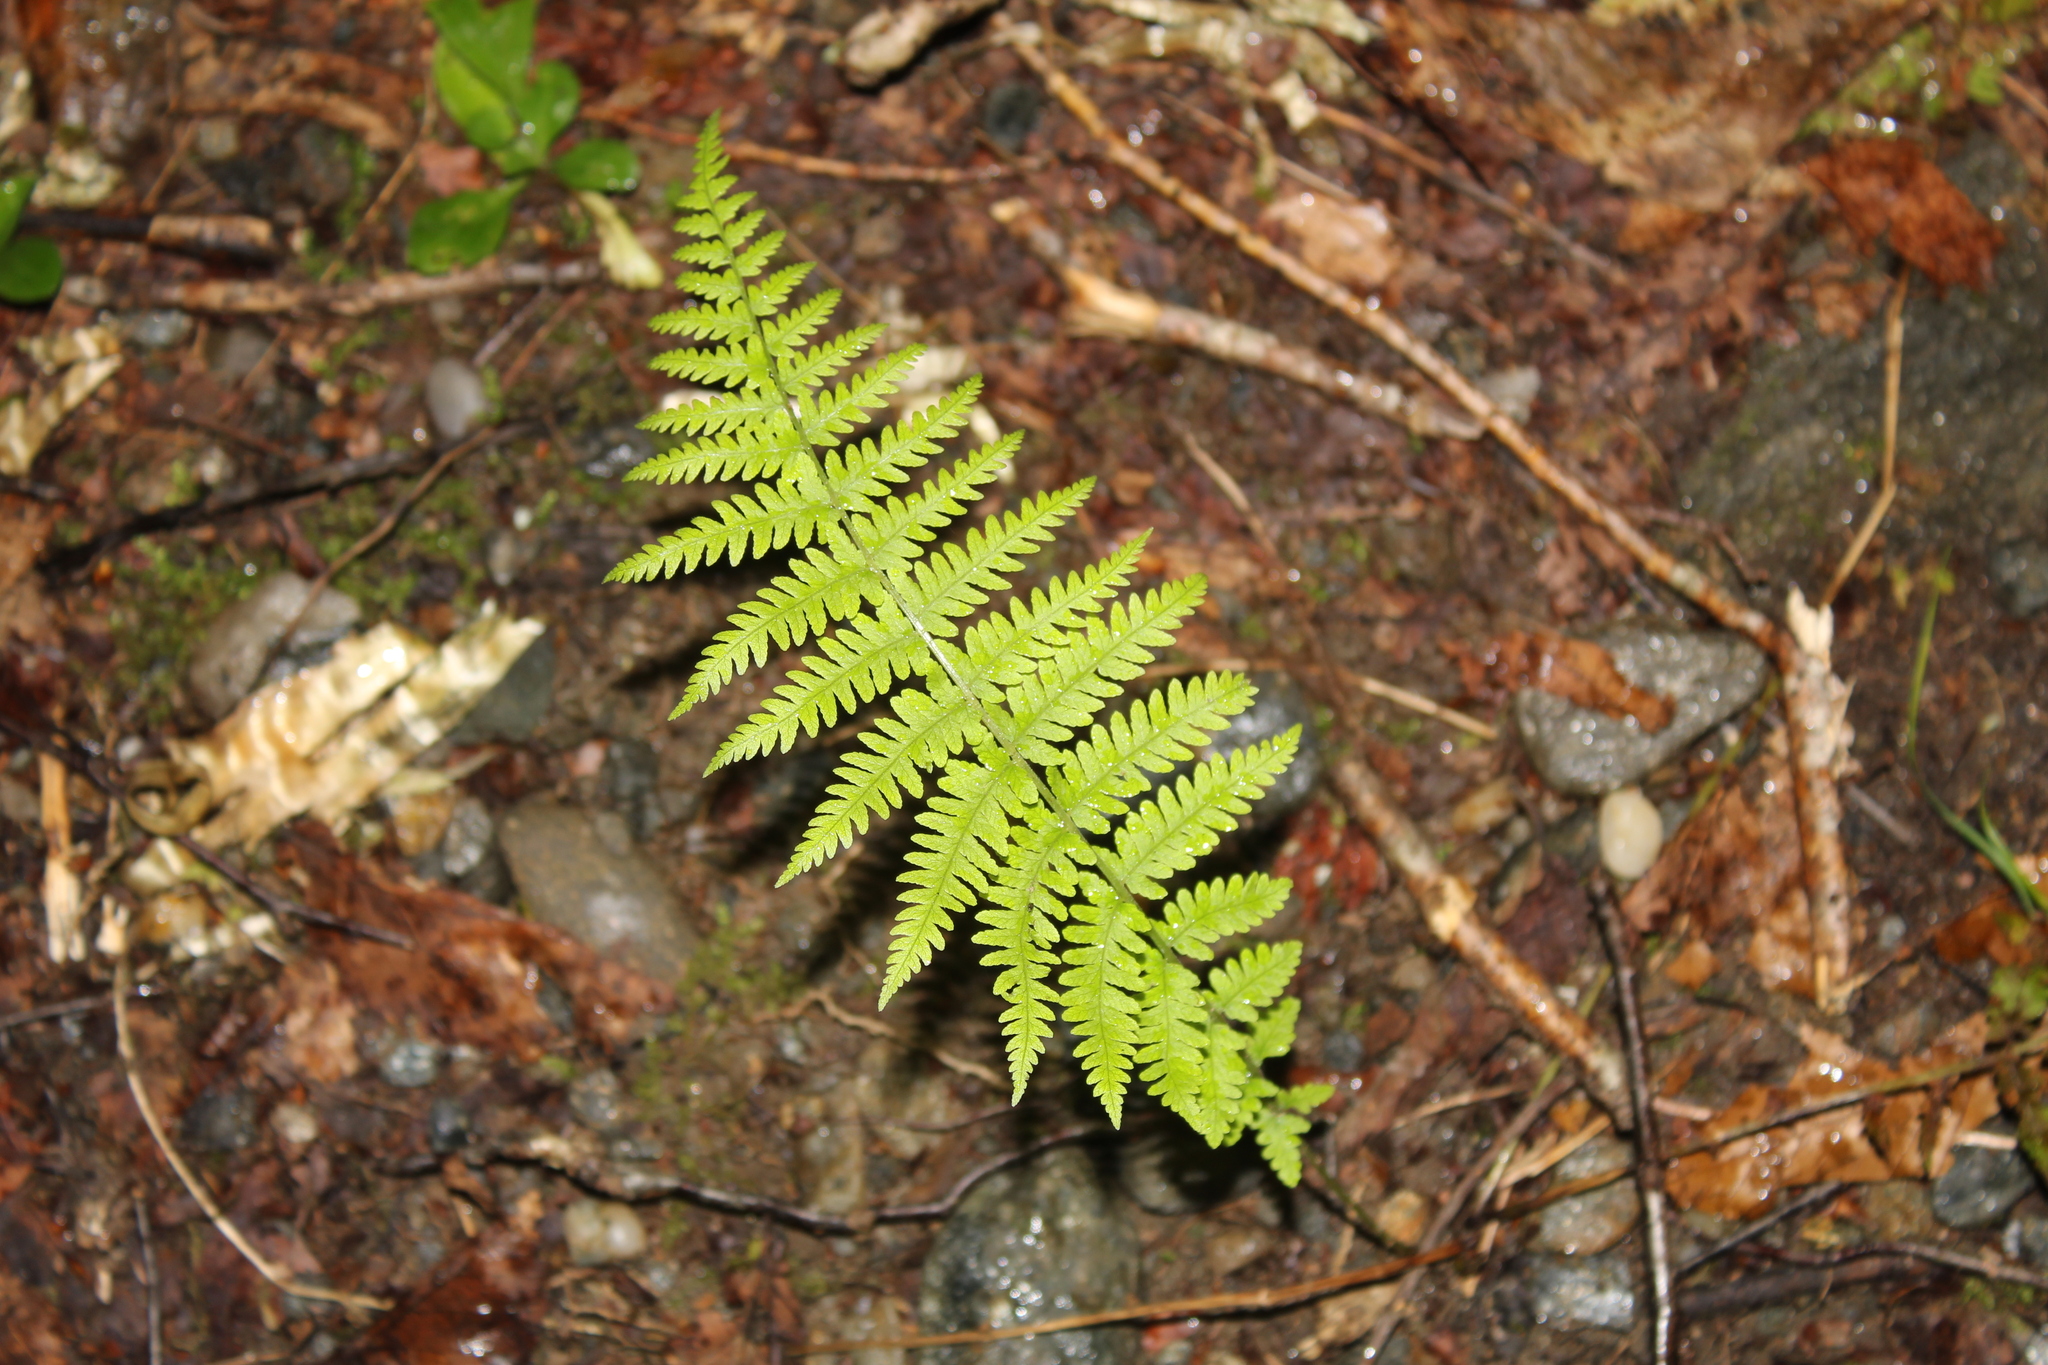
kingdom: Plantae
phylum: Tracheophyta
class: Polypodiopsida
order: Polypodiales
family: Thelypteridaceae
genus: Amauropelta
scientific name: Amauropelta noveboracensis
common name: New york fern
